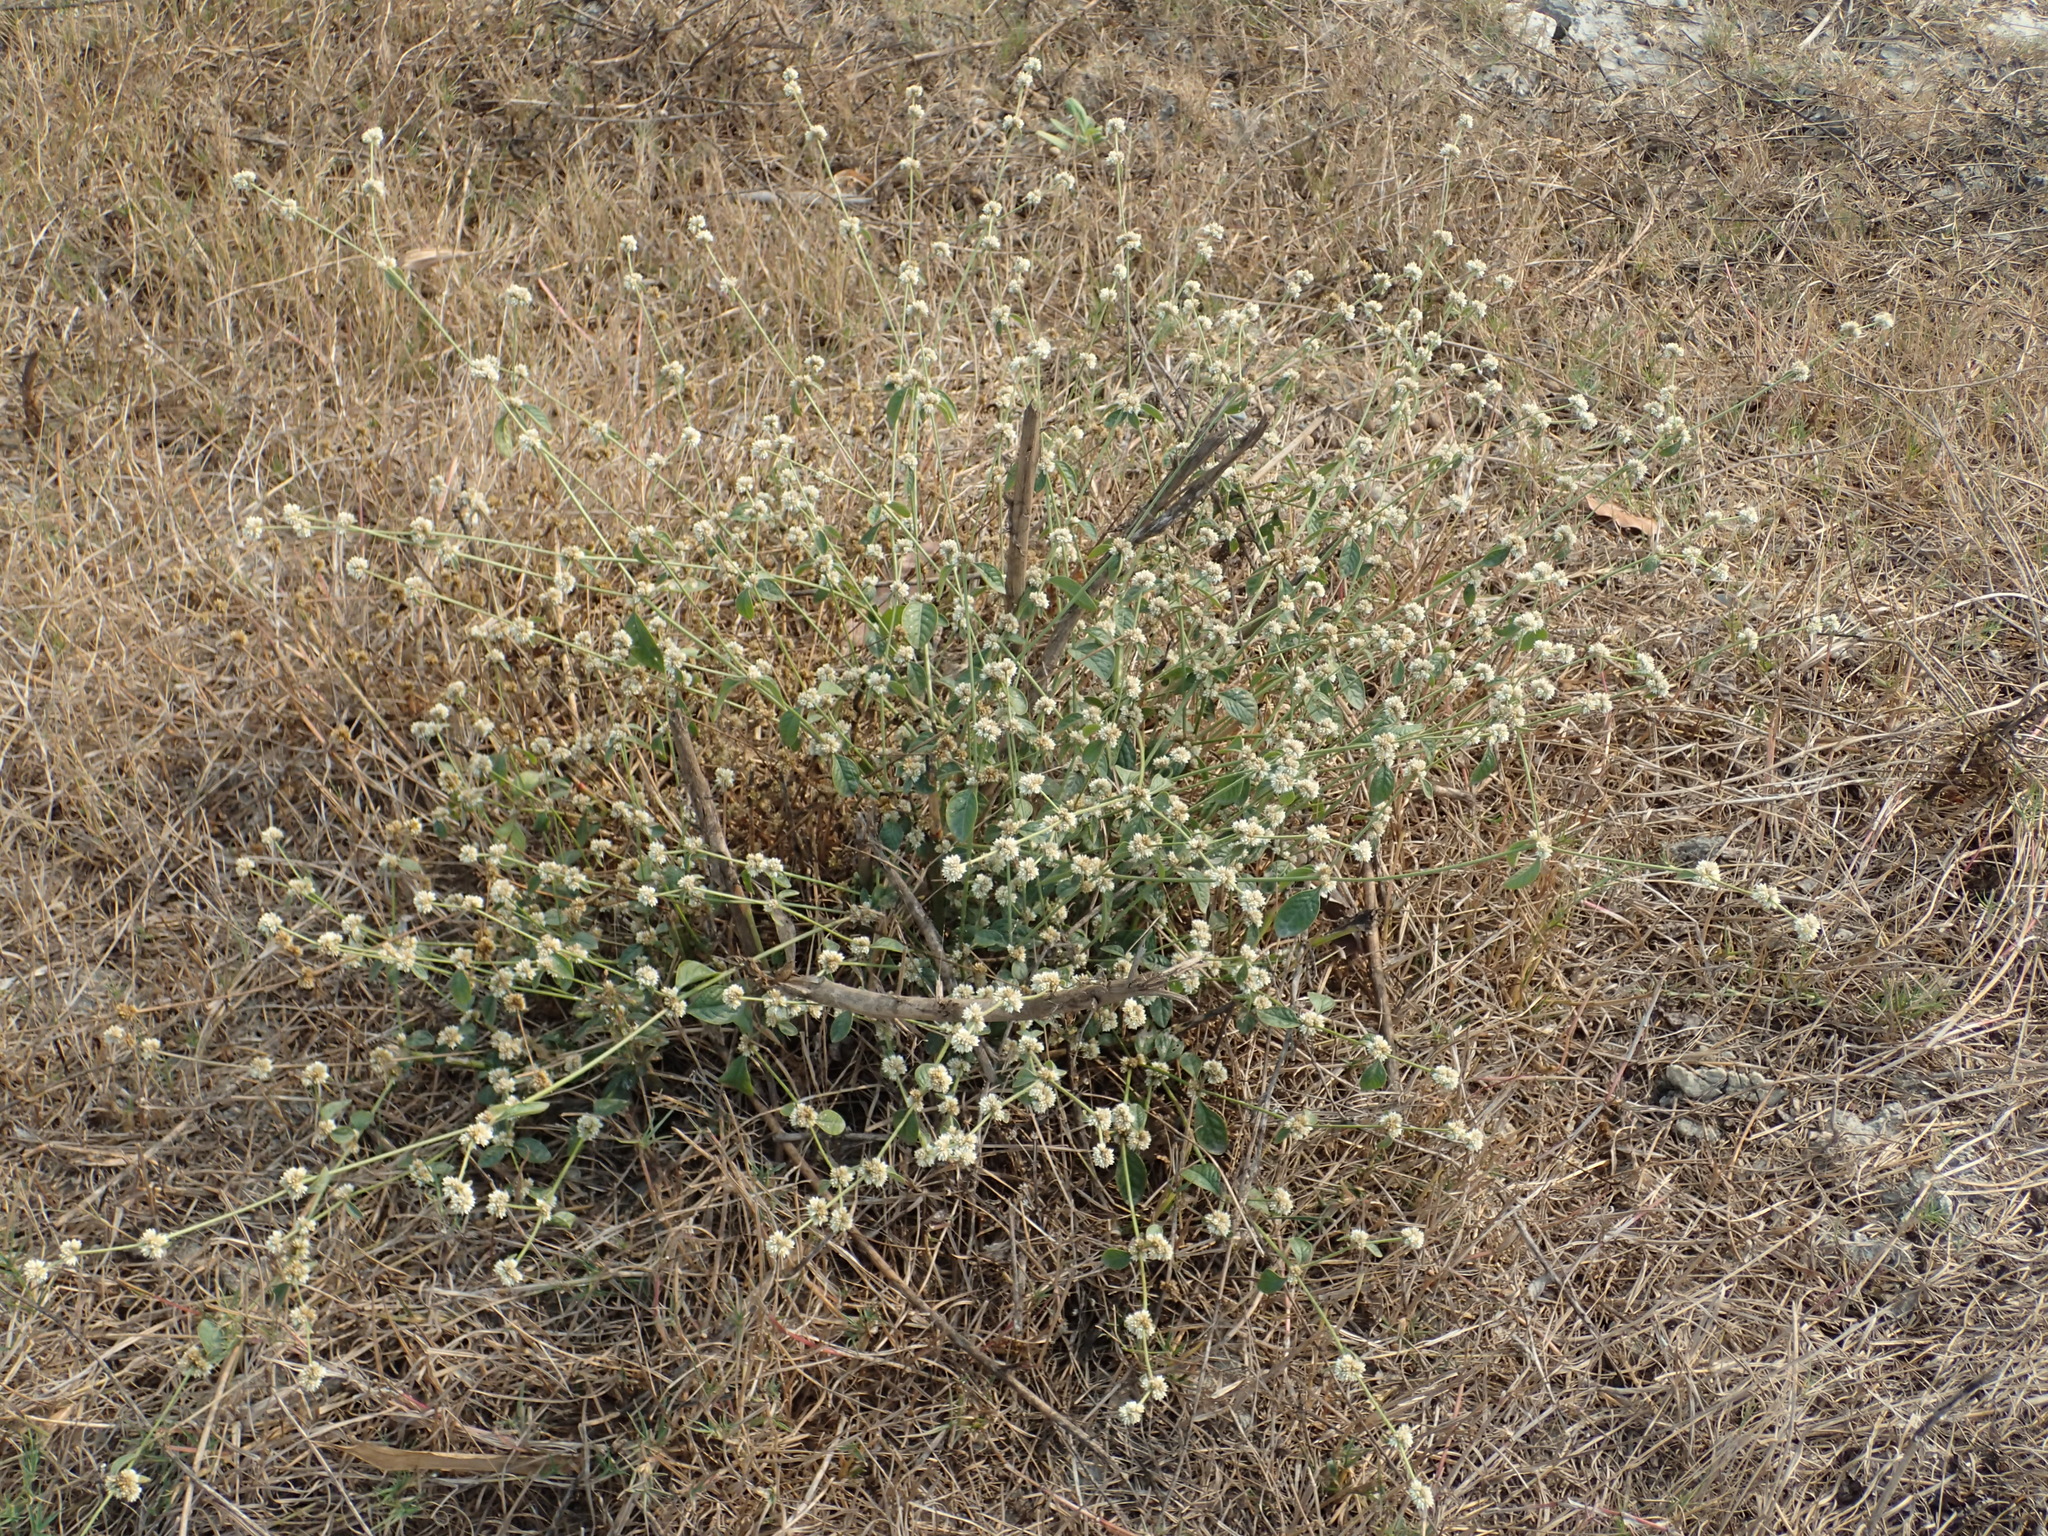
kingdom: Plantae
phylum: Tracheophyta
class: Magnoliopsida
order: Caryophyllales
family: Amaranthaceae
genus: Alternanthera
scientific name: Alternanthera bettzickiana
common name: Calico-plant
